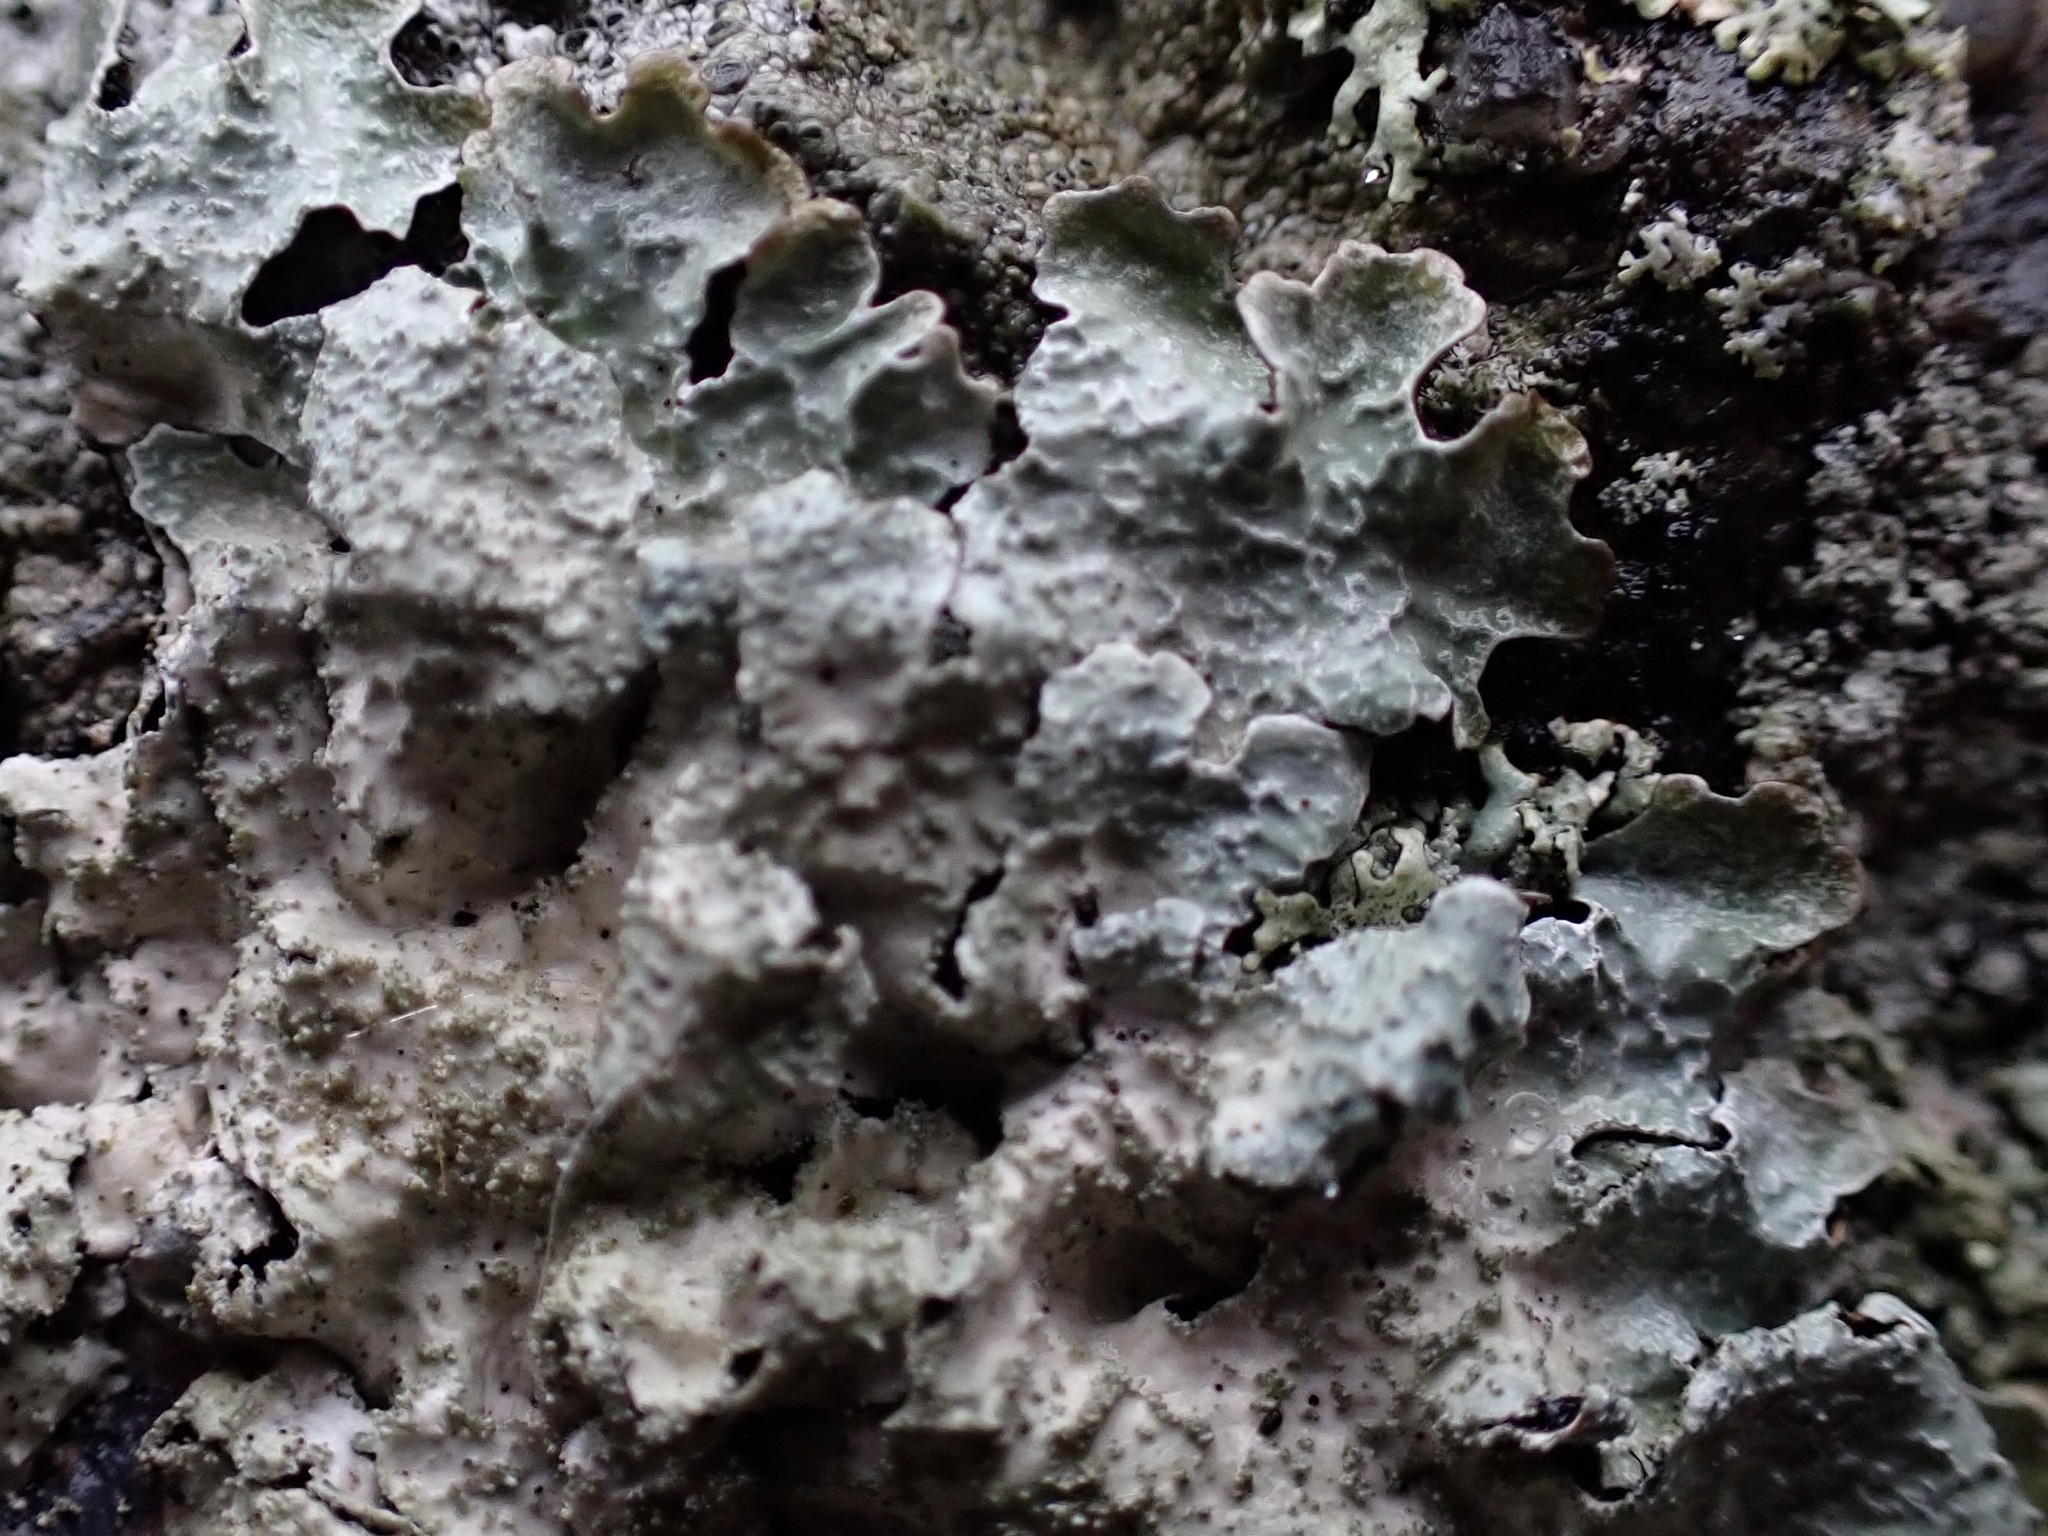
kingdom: Fungi
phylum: Ascomycota
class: Lecanoromycetes
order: Lecanorales
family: Parmeliaceae
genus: Imshaugia
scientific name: Imshaugia aleurites
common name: Salted starburst lichen
